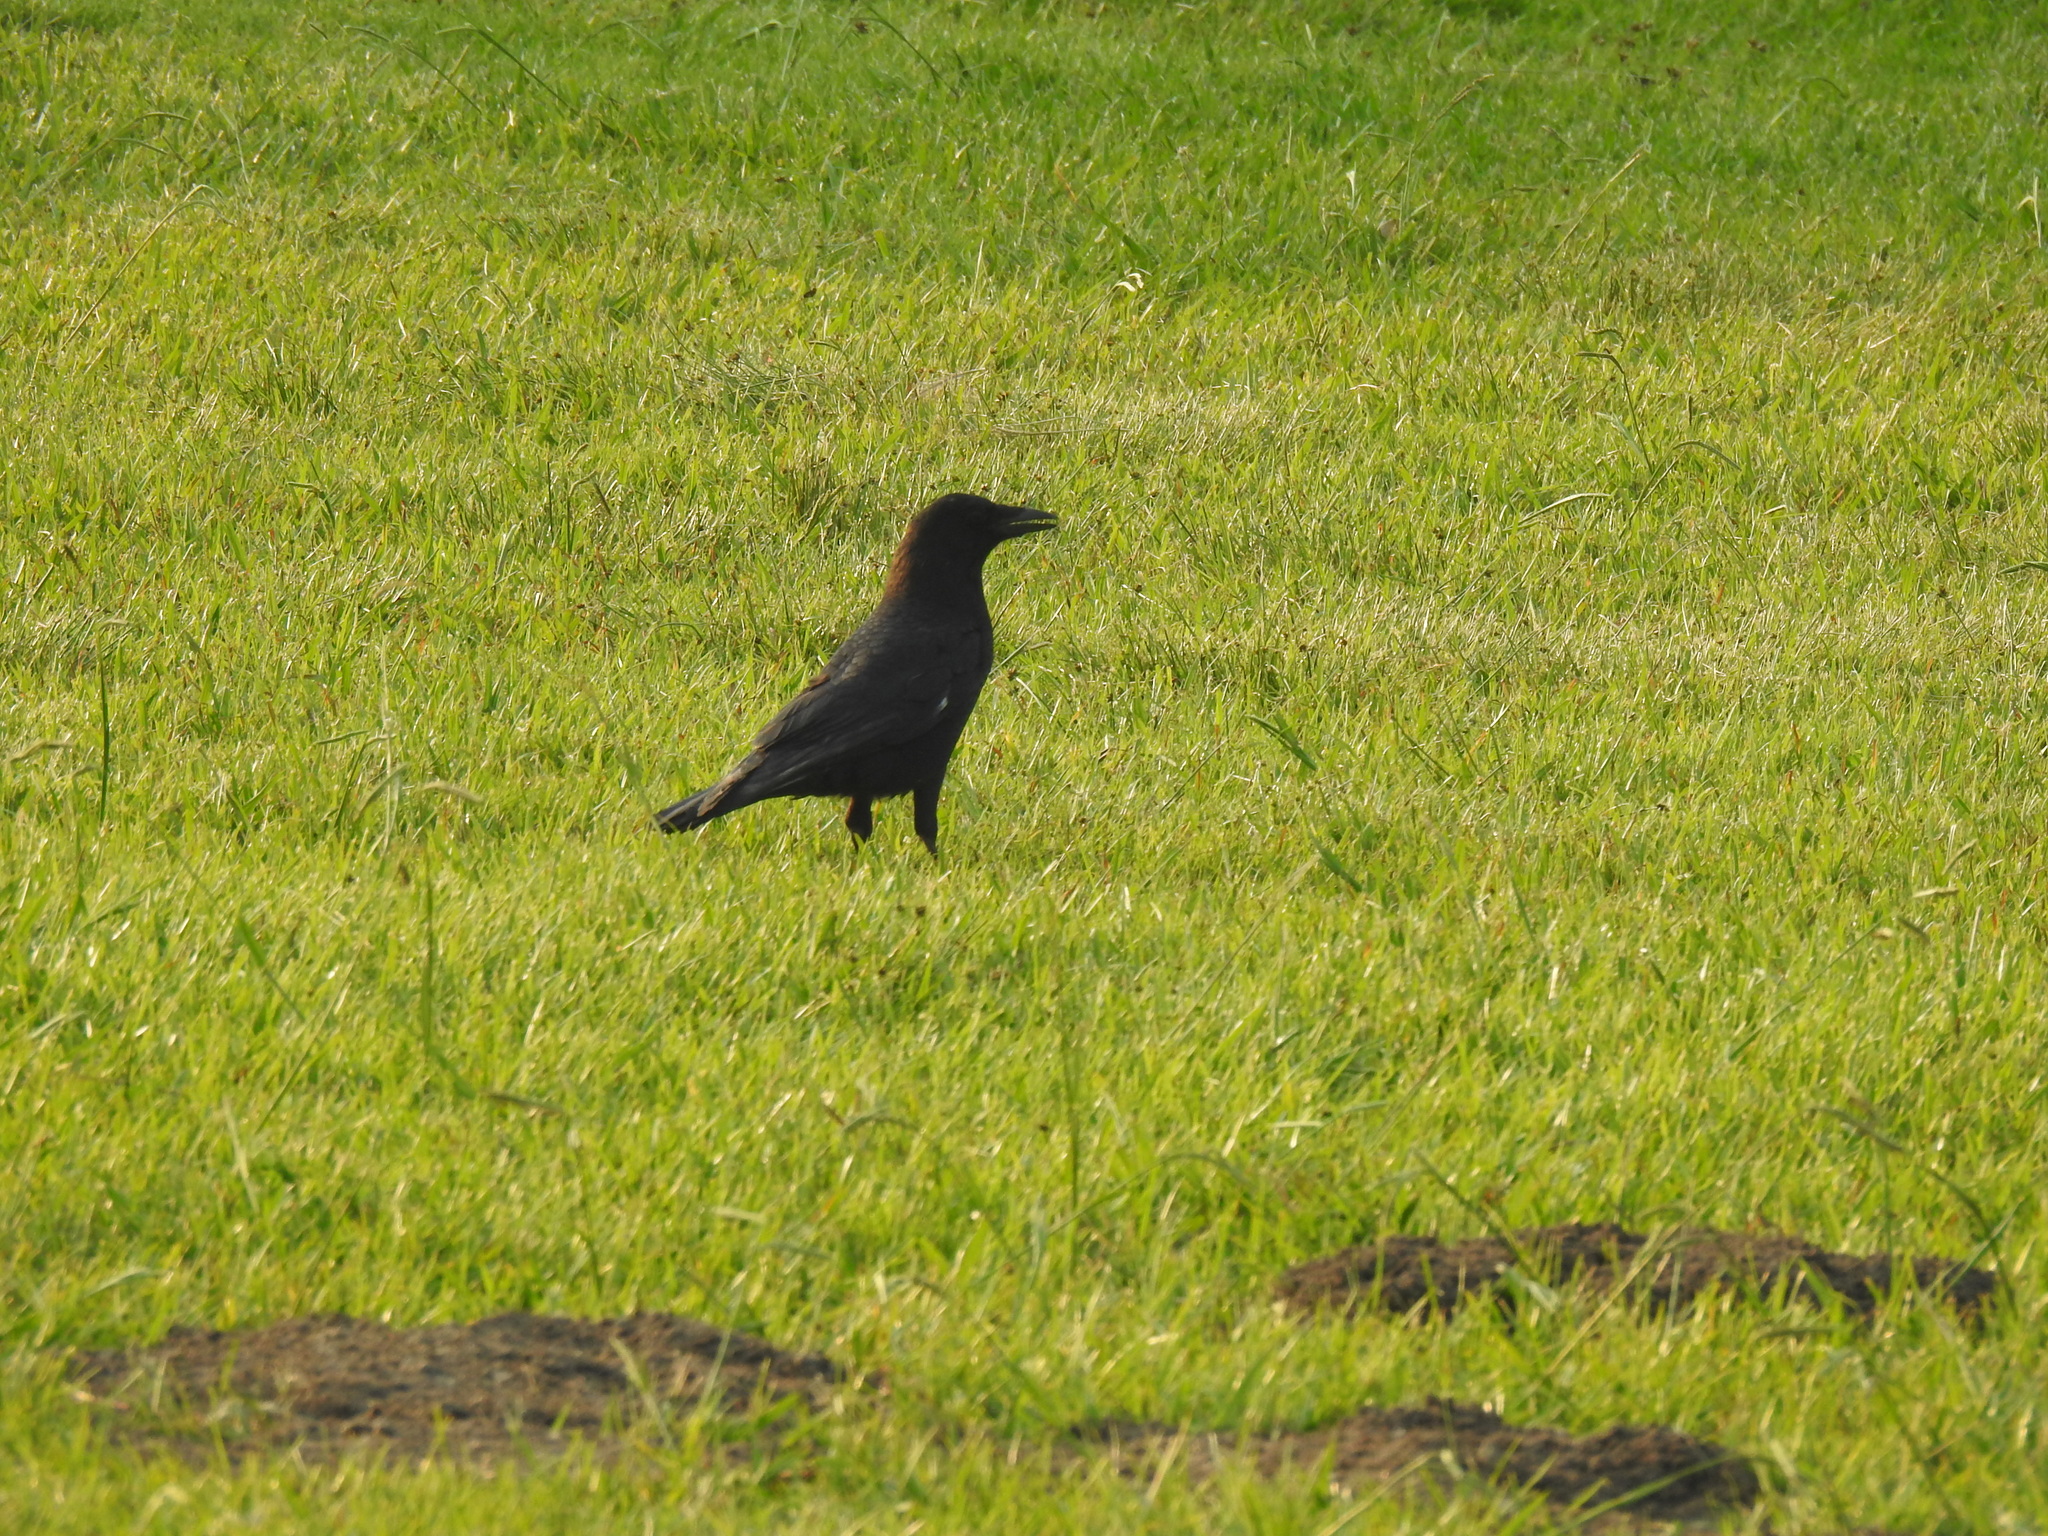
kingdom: Animalia
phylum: Chordata
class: Aves
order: Passeriformes
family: Corvidae
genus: Corvus
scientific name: Corvus brachyrhynchos
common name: American crow
